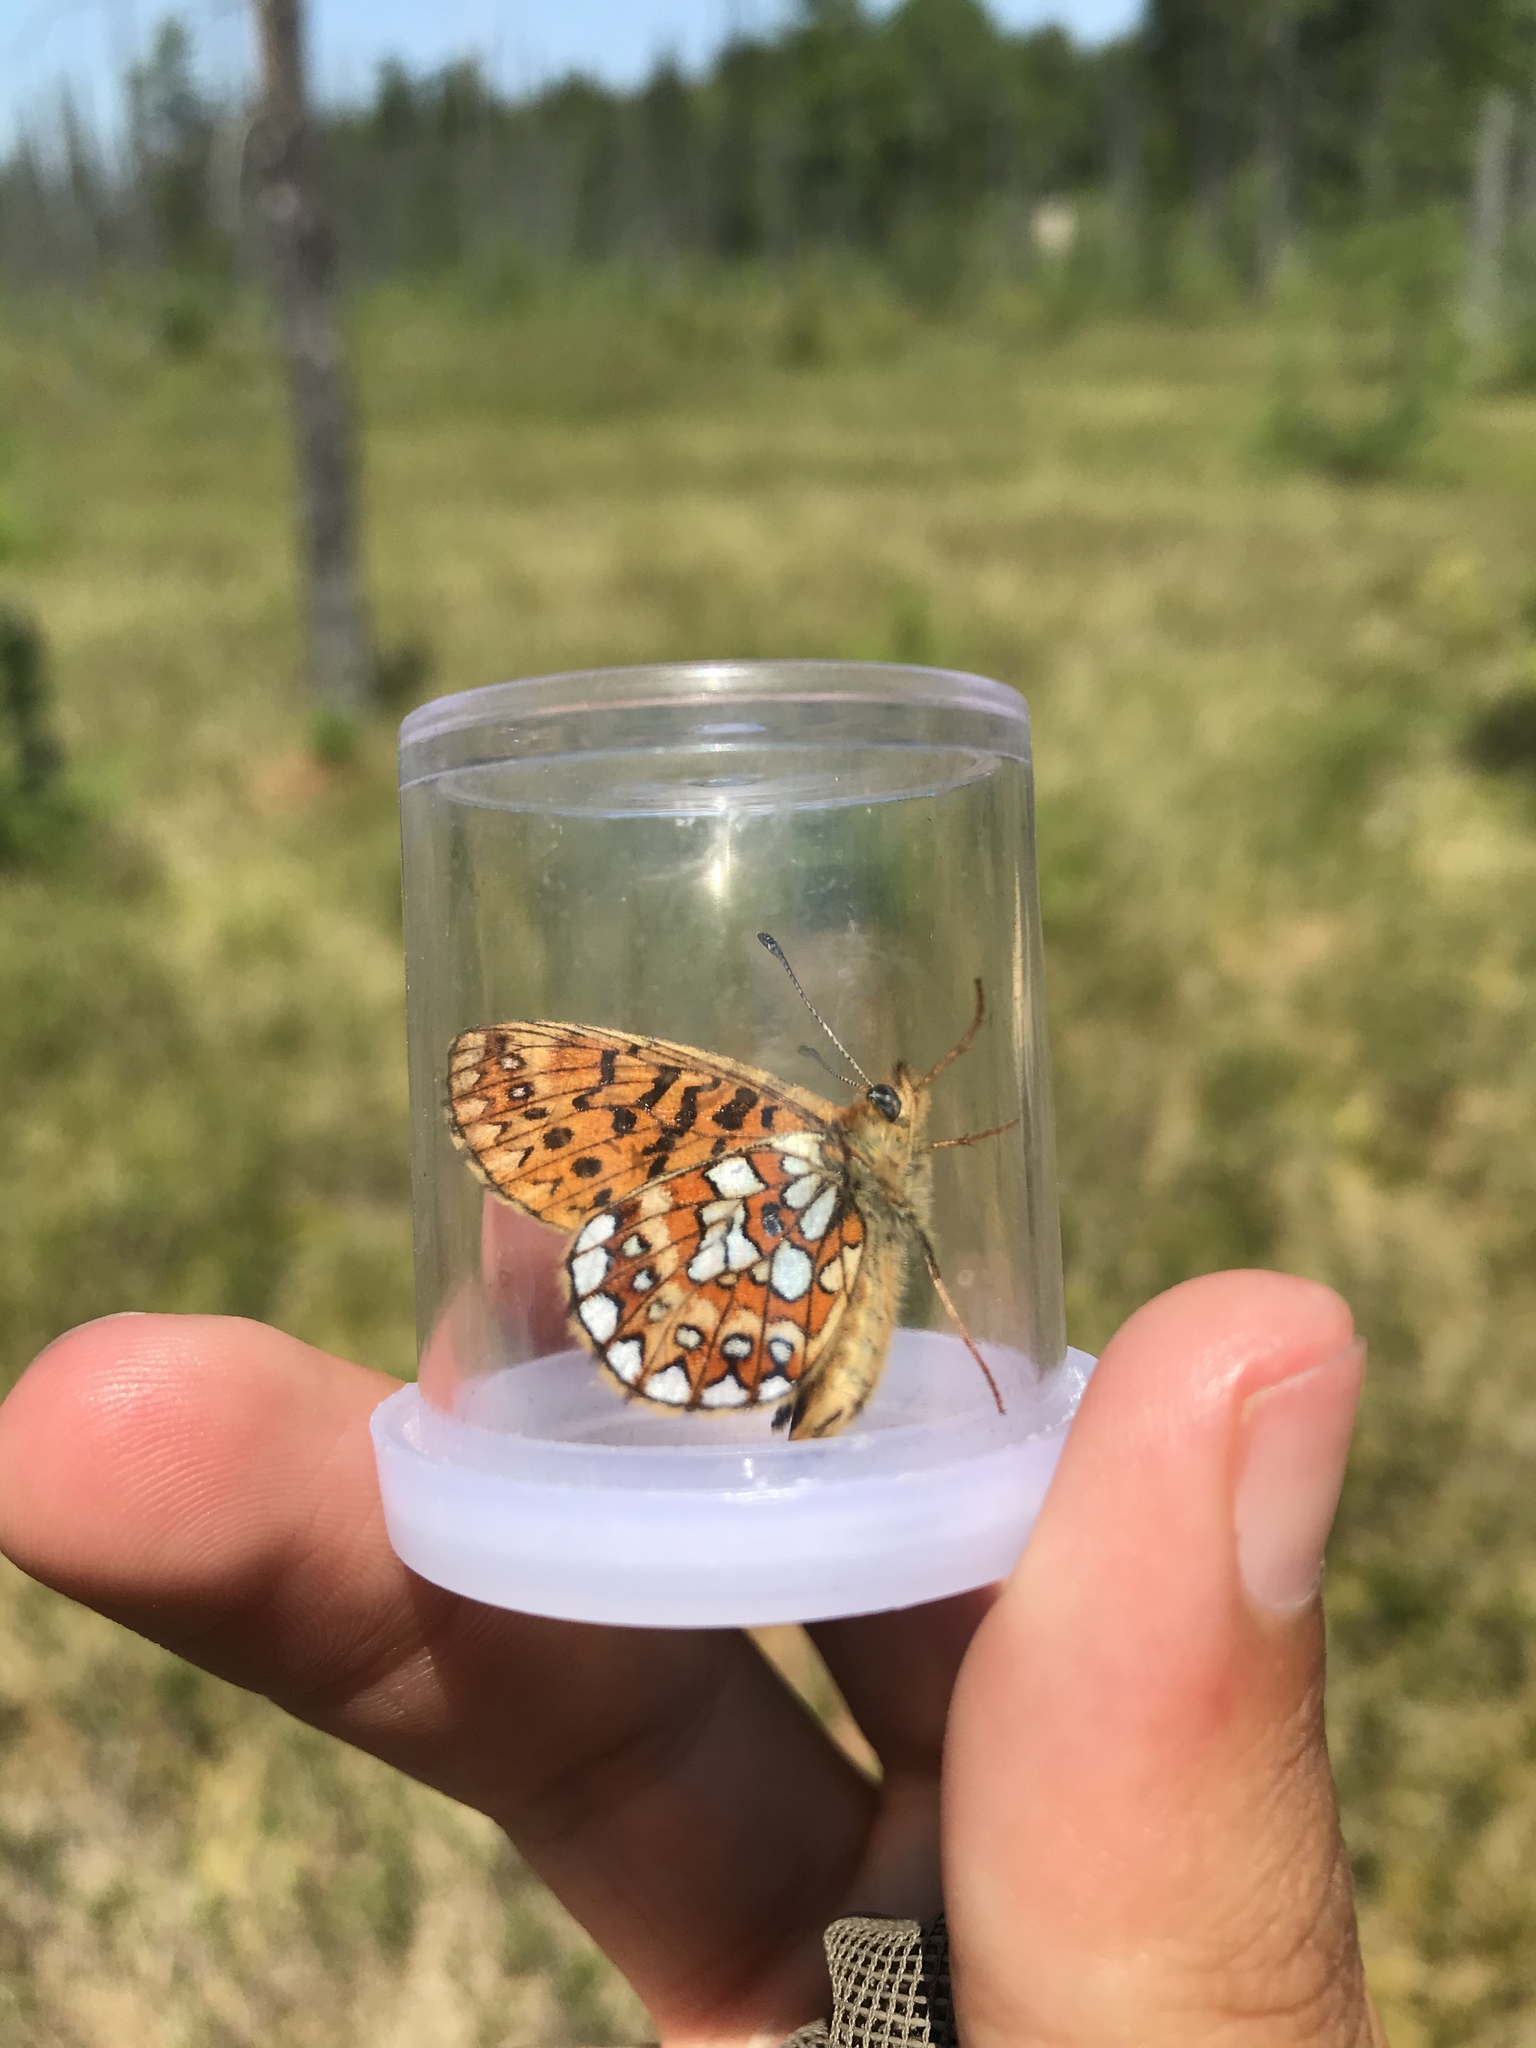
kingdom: Animalia
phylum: Arthropoda
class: Insecta
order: Lepidoptera
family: Nymphalidae
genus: Boloria
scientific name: Boloria eunomia
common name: Bog fritillary
